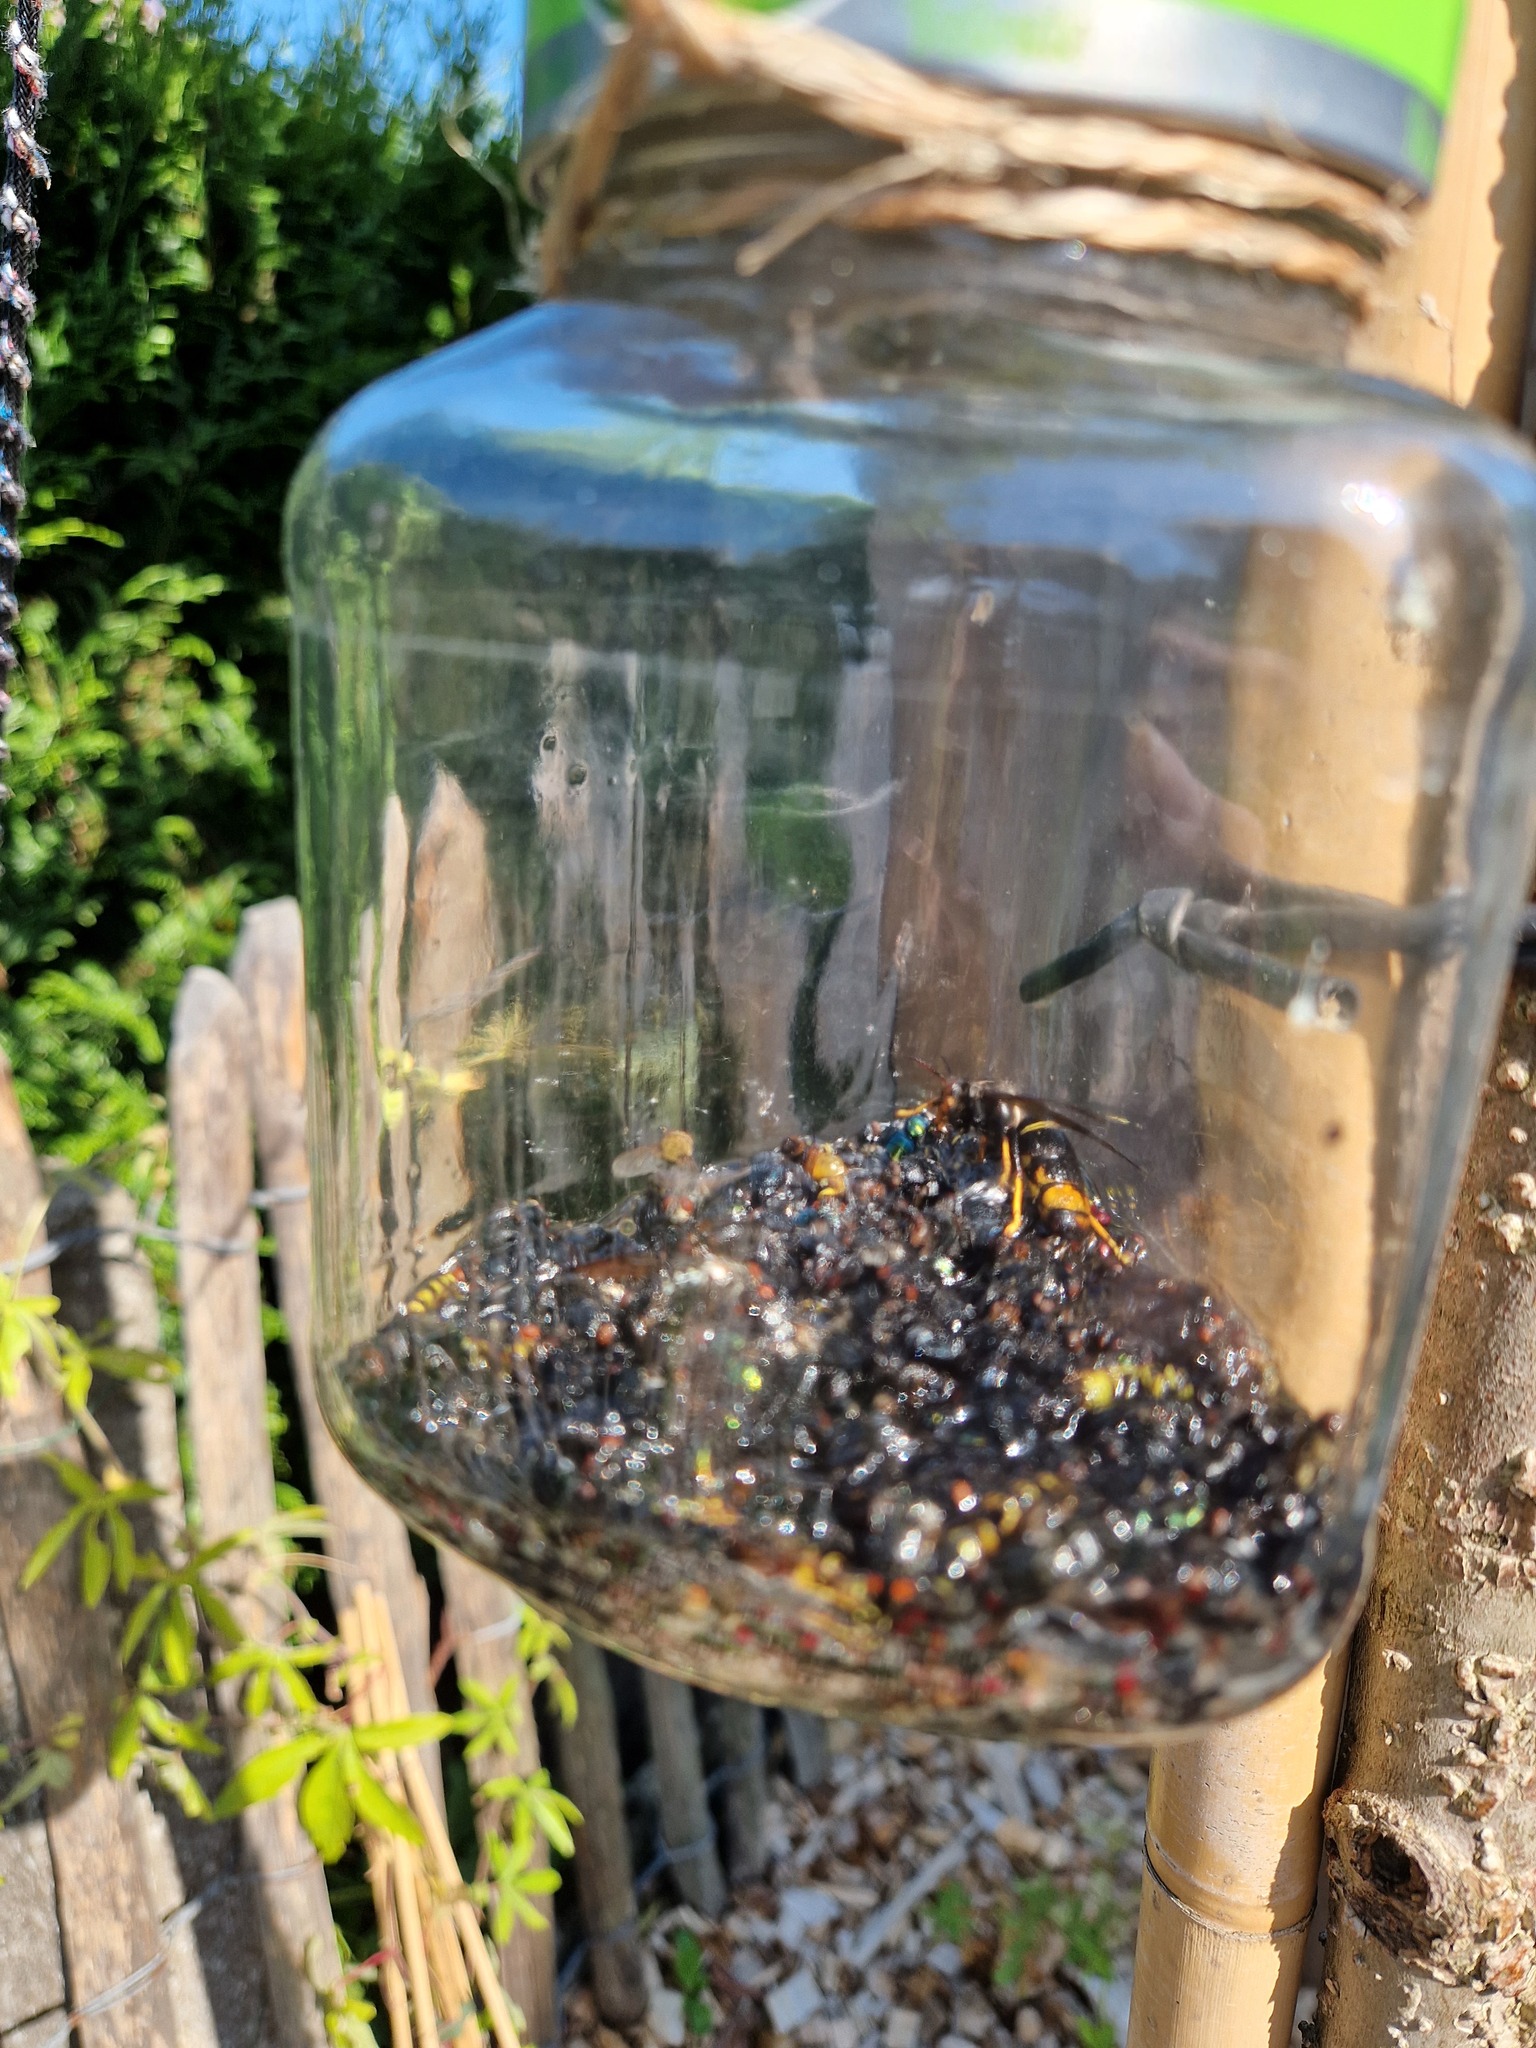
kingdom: Animalia
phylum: Arthropoda
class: Insecta
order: Hymenoptera
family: Vespidae
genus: Vespa
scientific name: Vespa velutina
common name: Asian hornet
